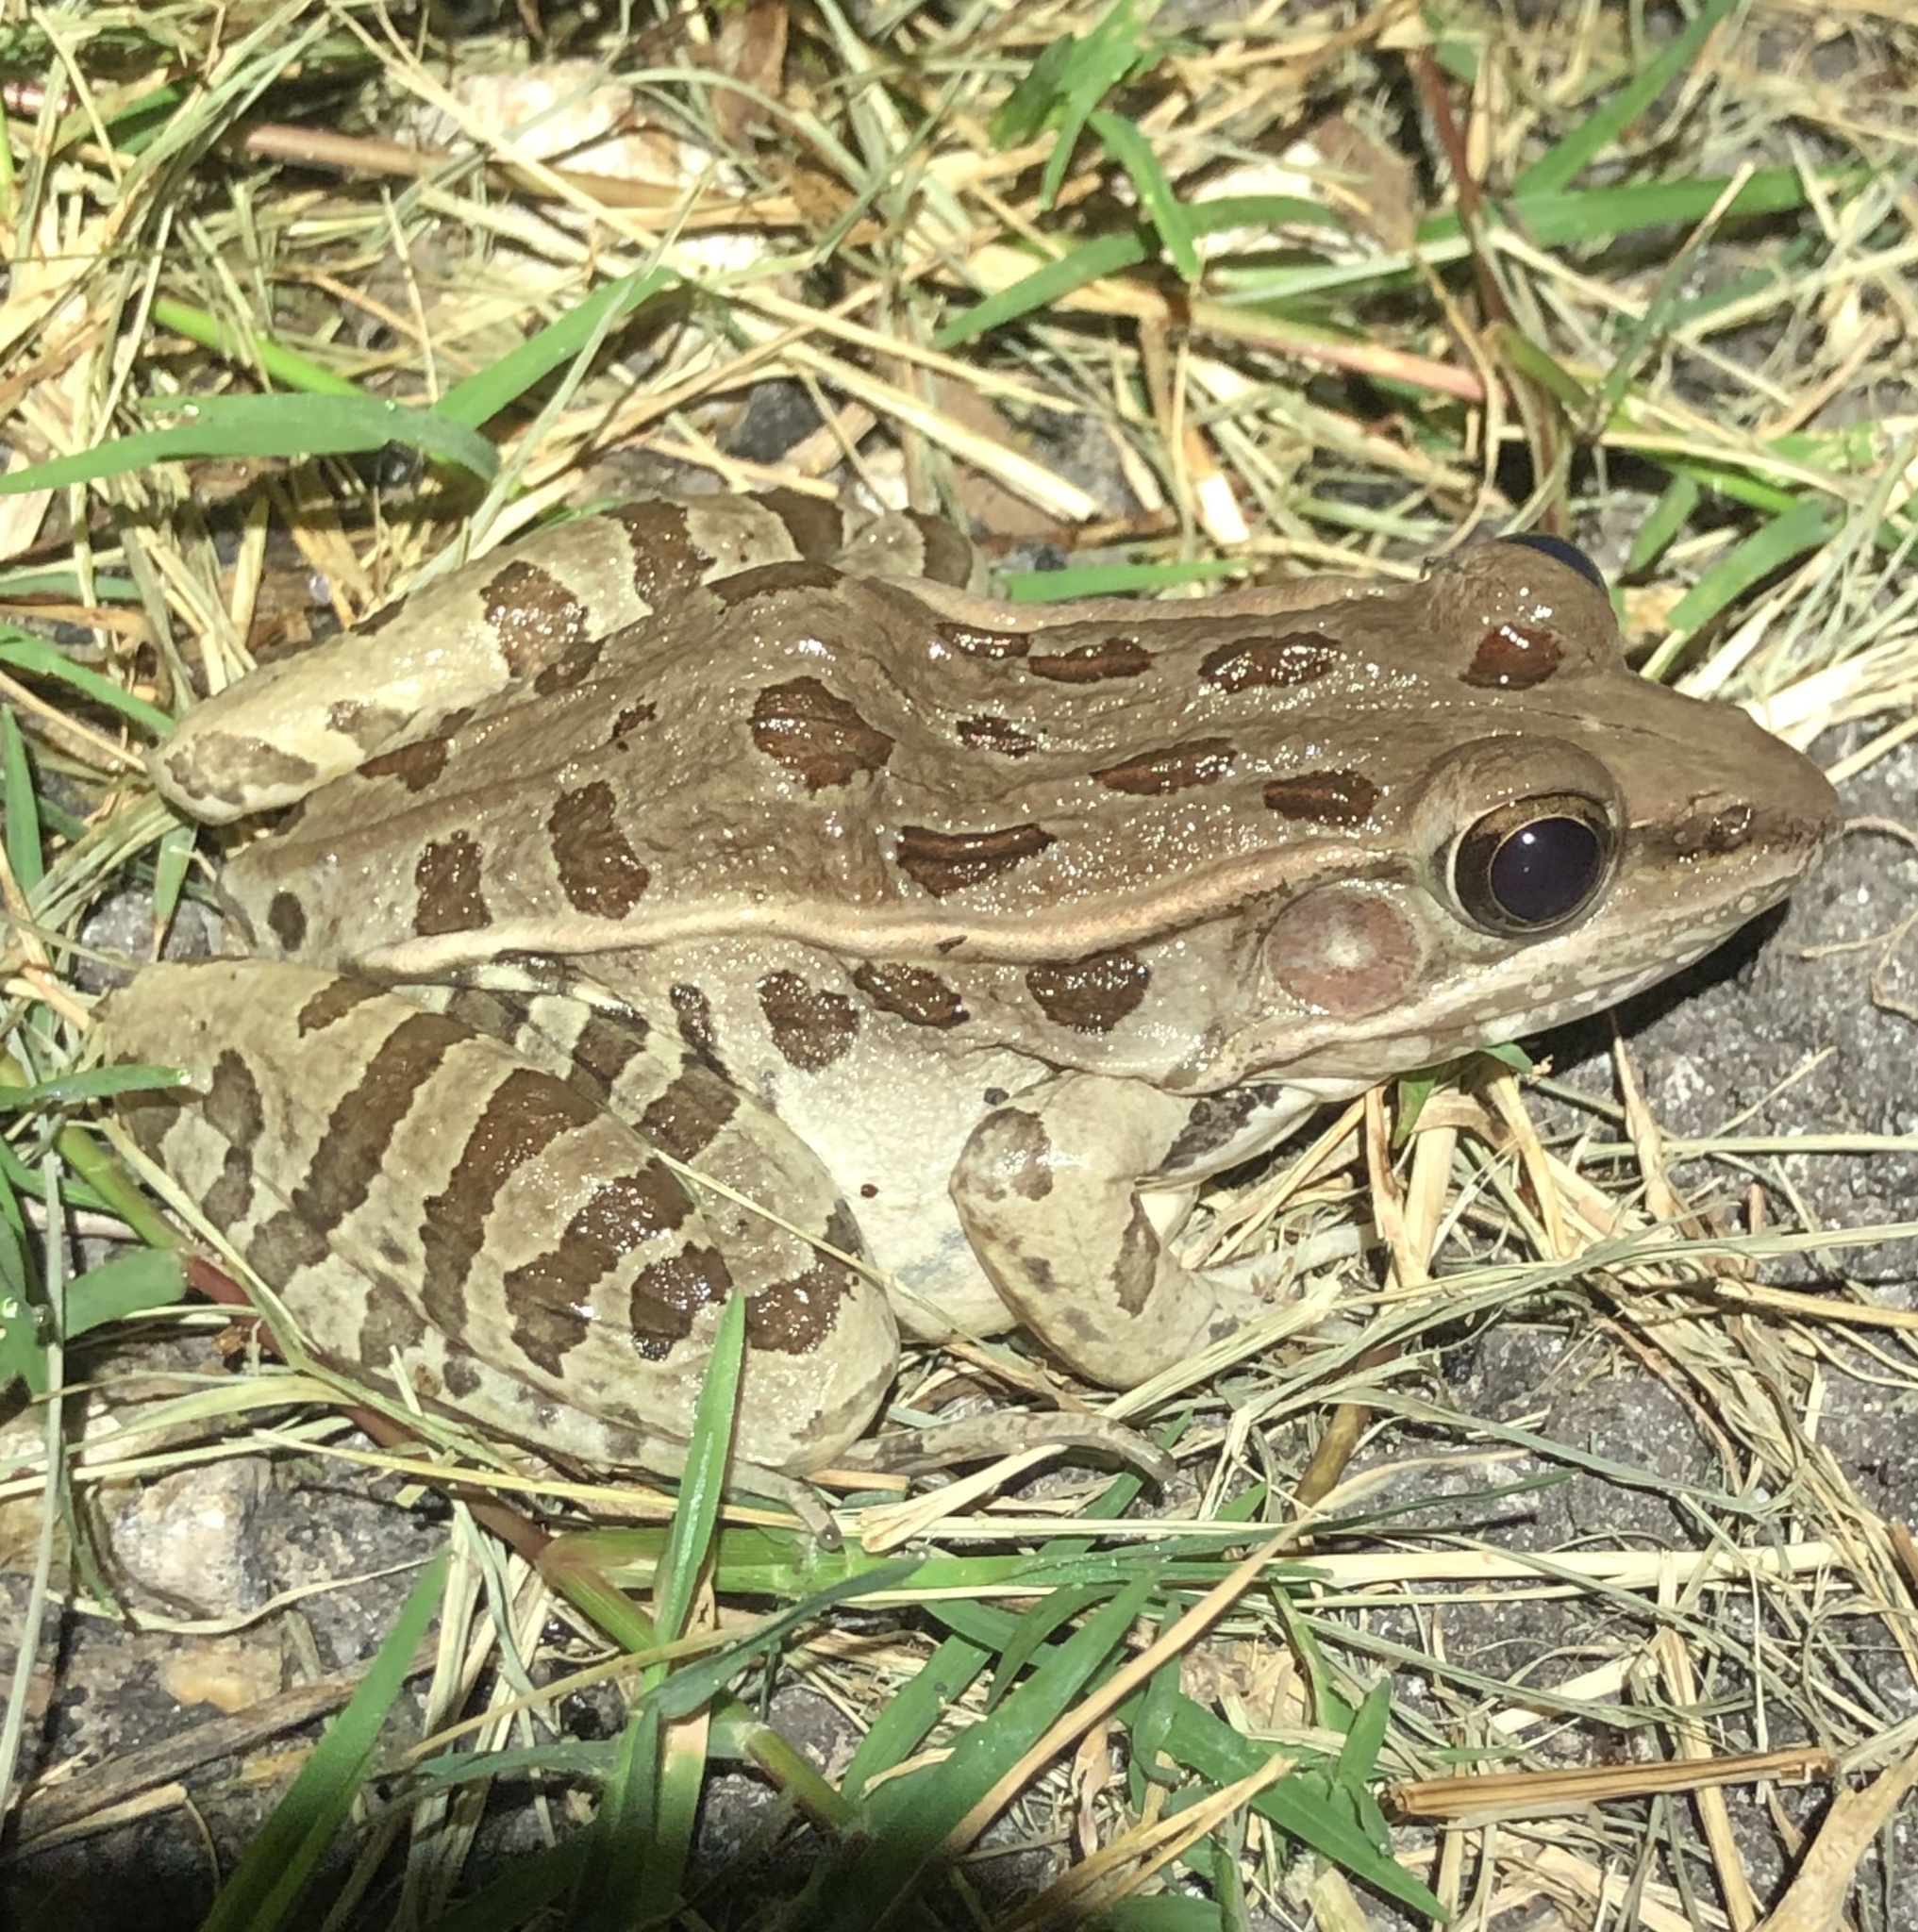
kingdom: Animalia
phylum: Chordata
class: Amphibia
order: Anura
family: Ranidae
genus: Lithobates
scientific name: Lithobates sphenocephalus
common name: Southern leopard frog
